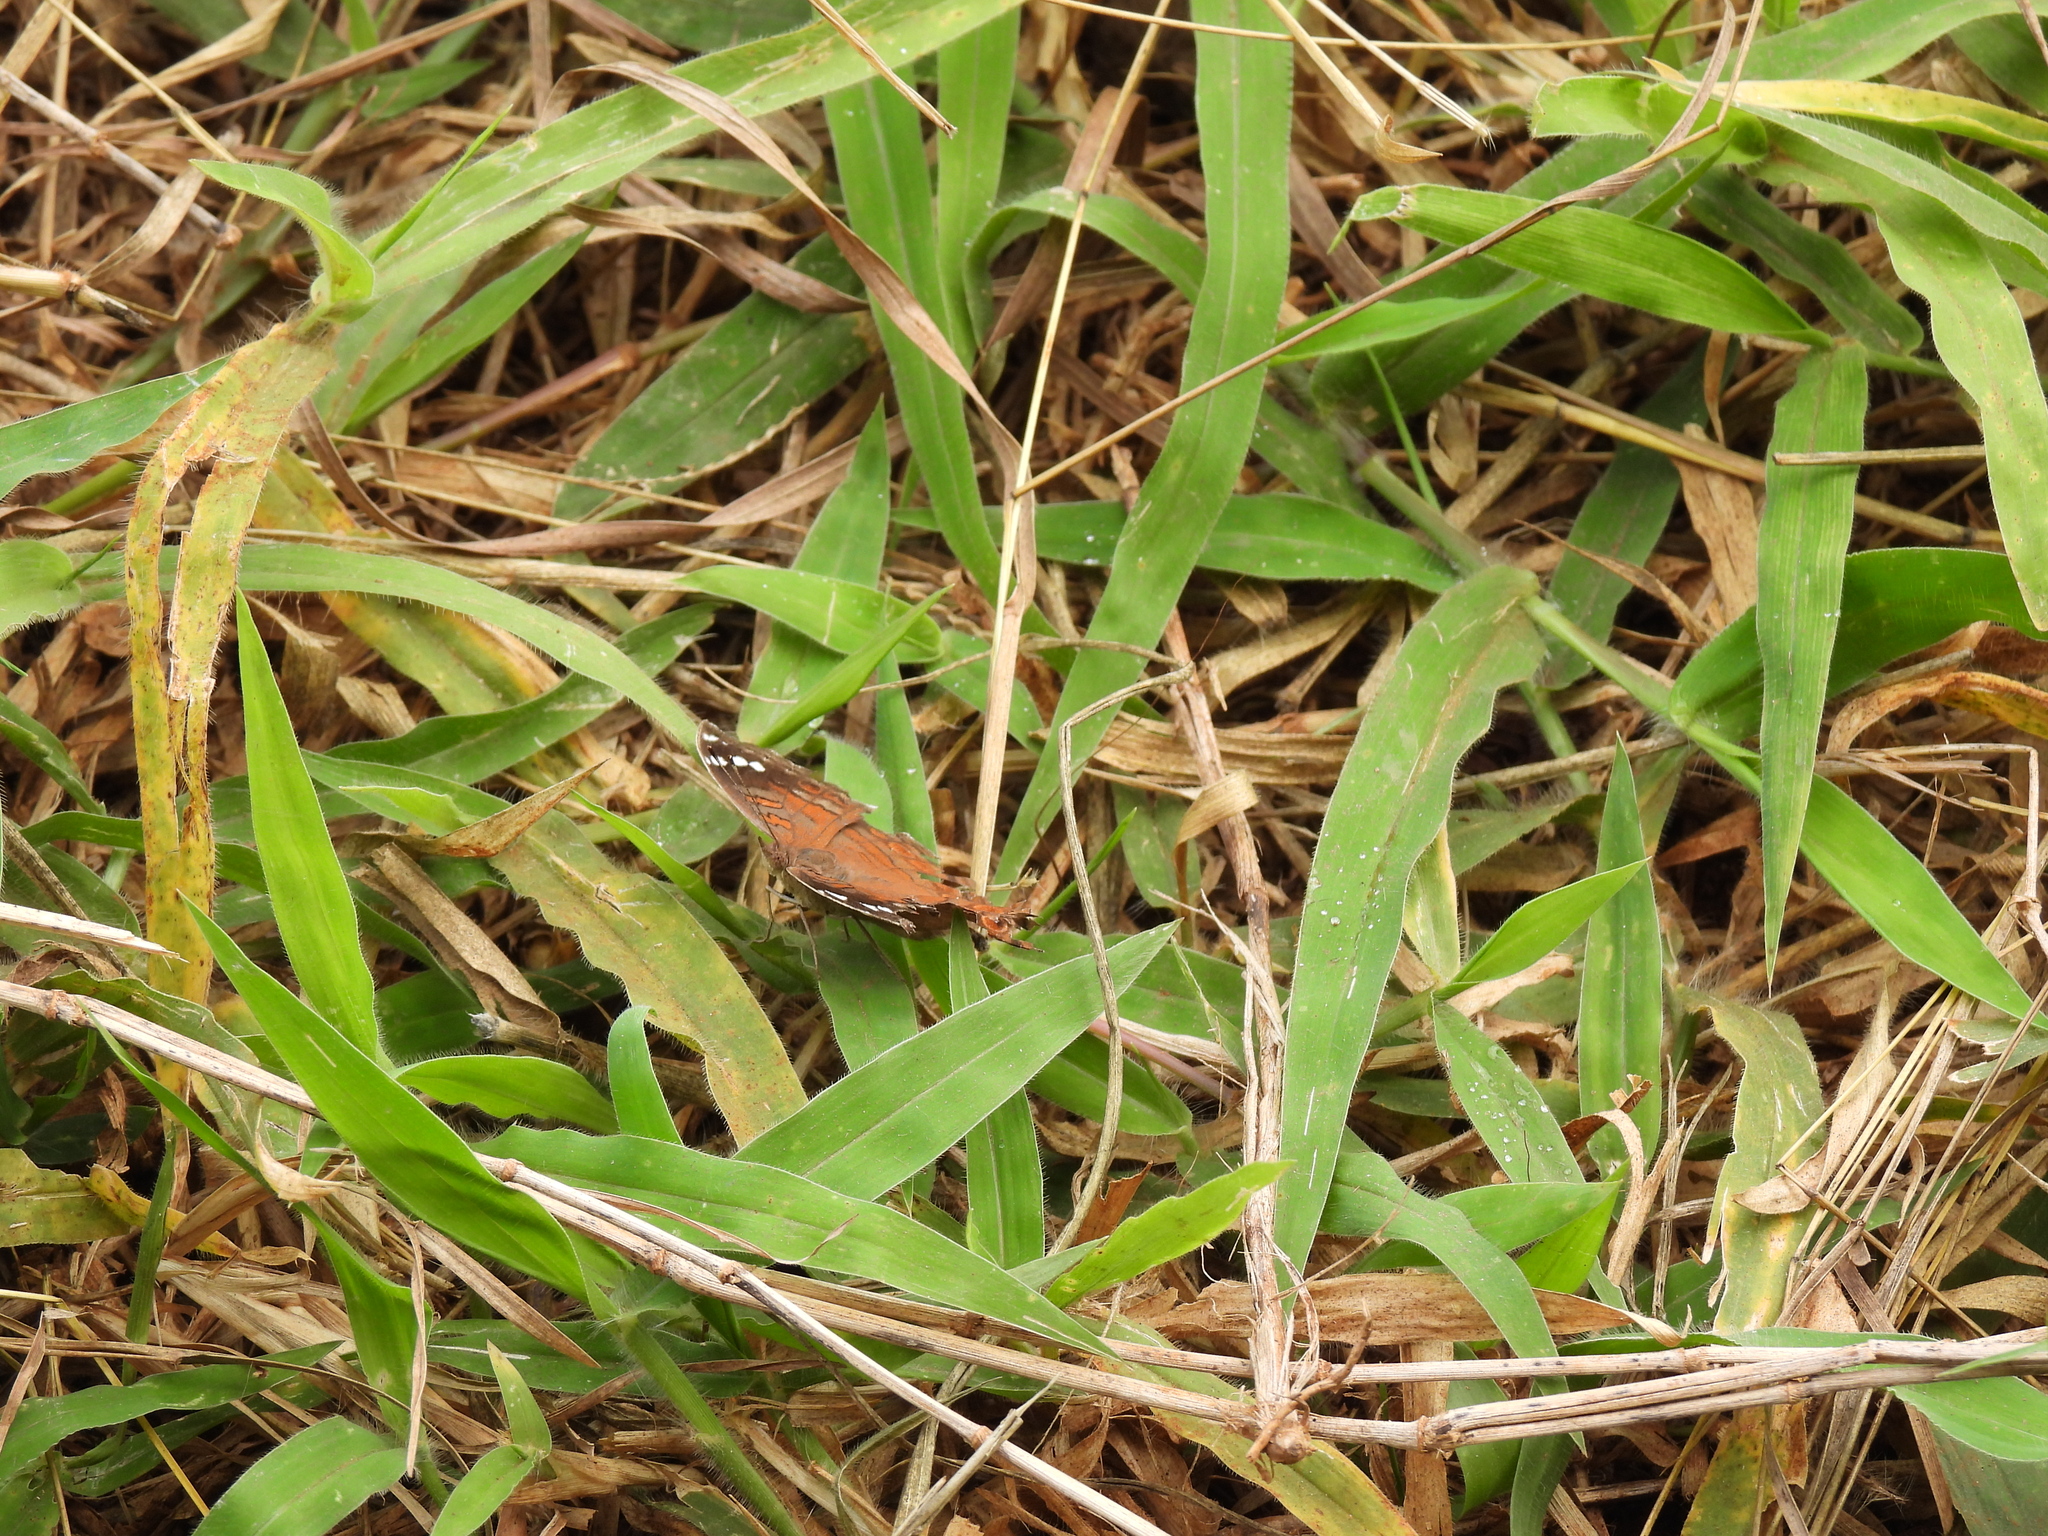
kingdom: Animalia
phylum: Arthropoda
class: Insecta
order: Lepidoptera
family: Nymphalidae
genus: Junonia
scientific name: Junonia natalica
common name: Brown pansy
